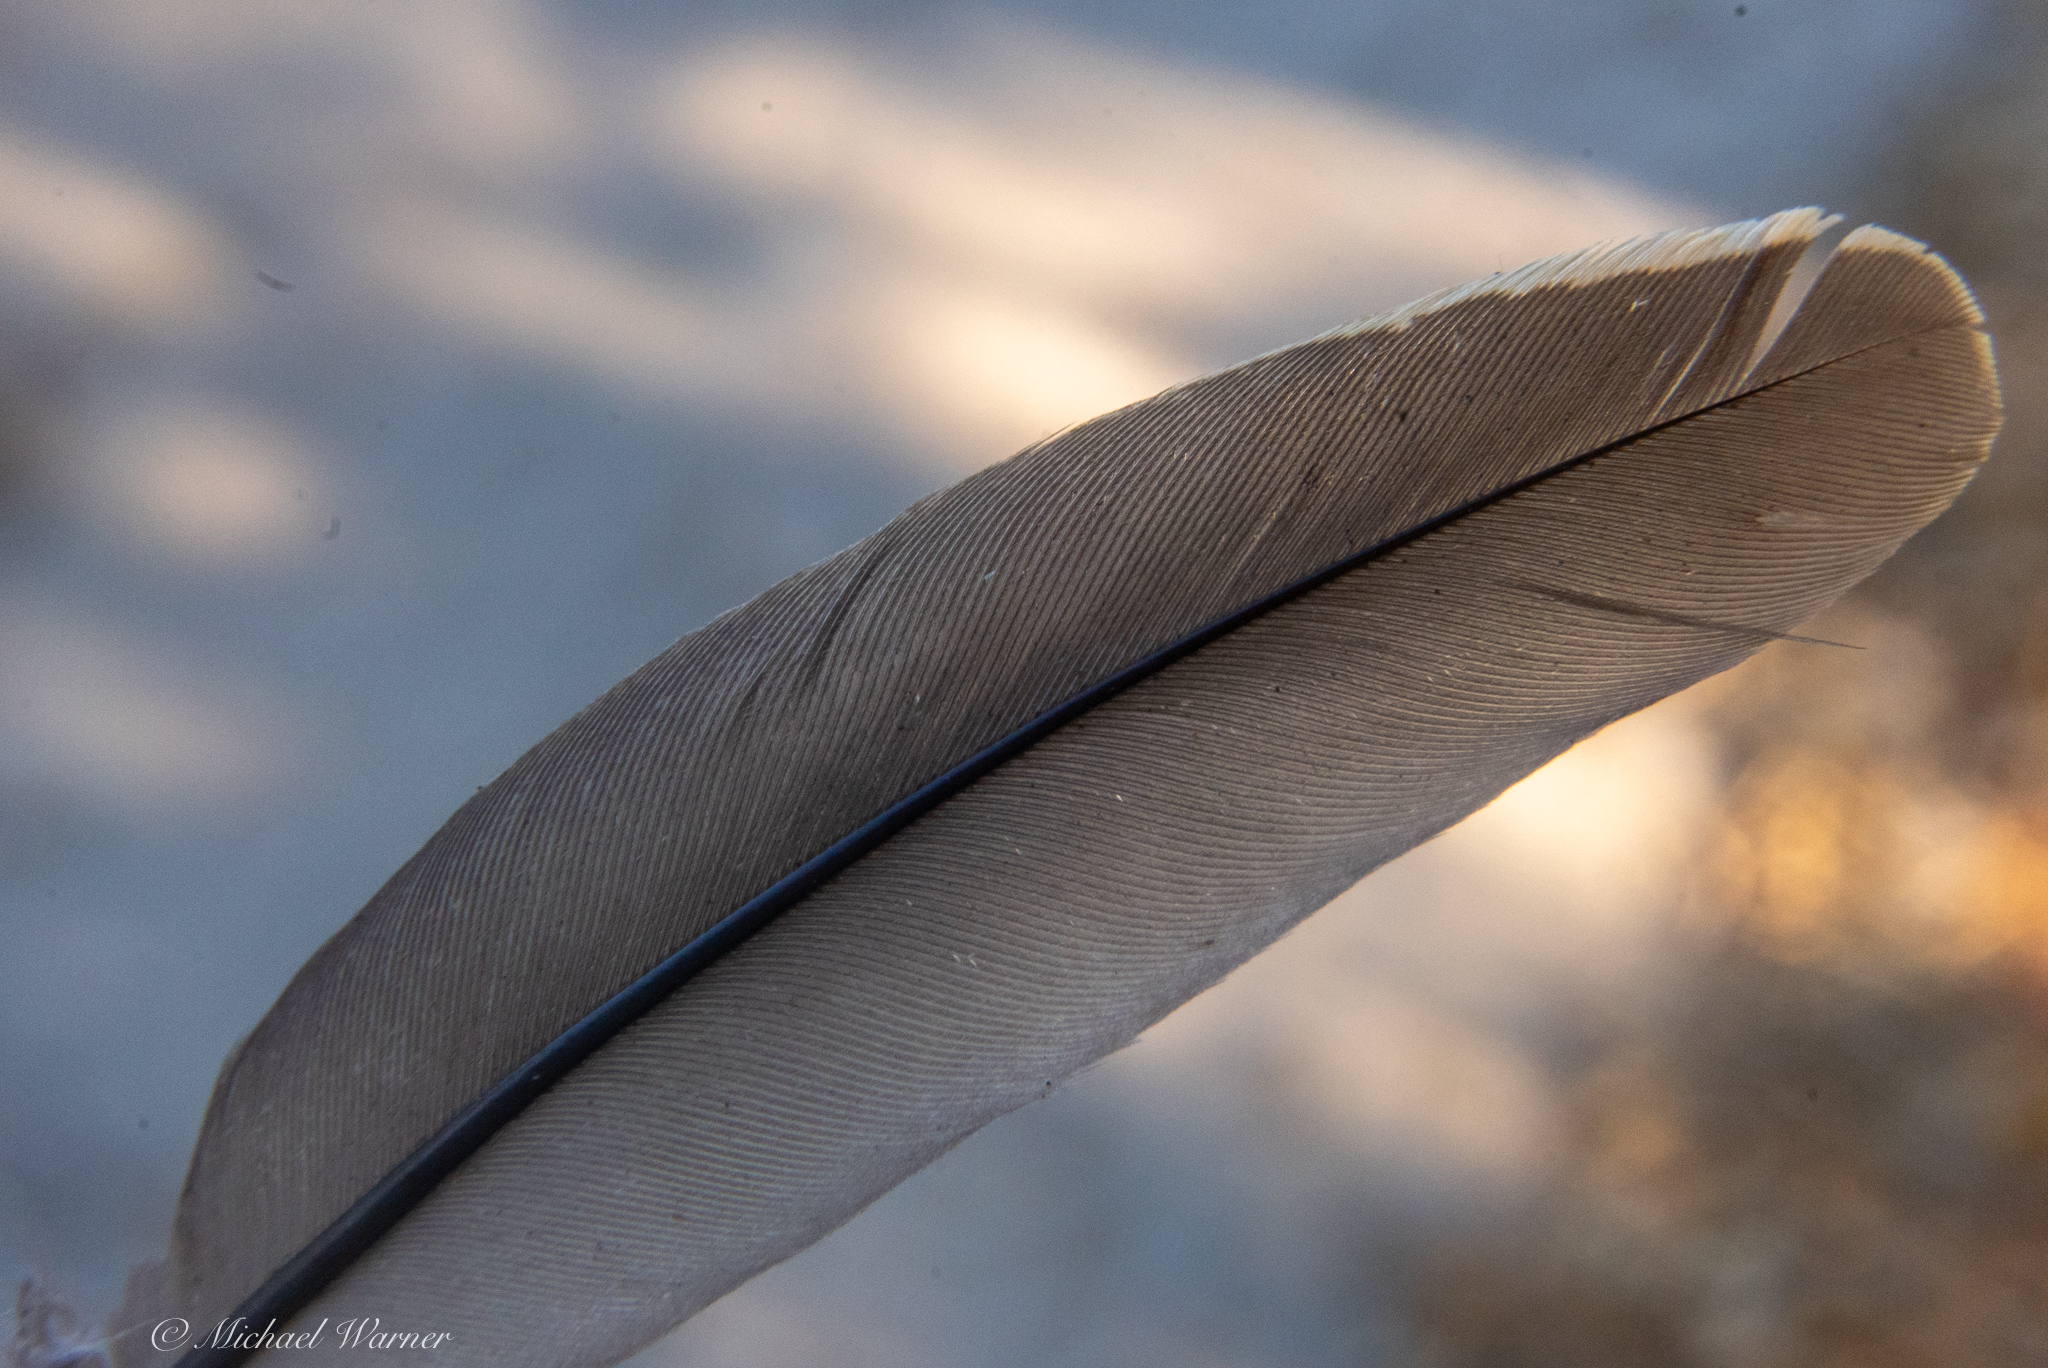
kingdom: Animalia
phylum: Chordata
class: Aves
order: Galliformes
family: Odontophoridae
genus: Callipepla
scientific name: Callipepla californica
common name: California quail
